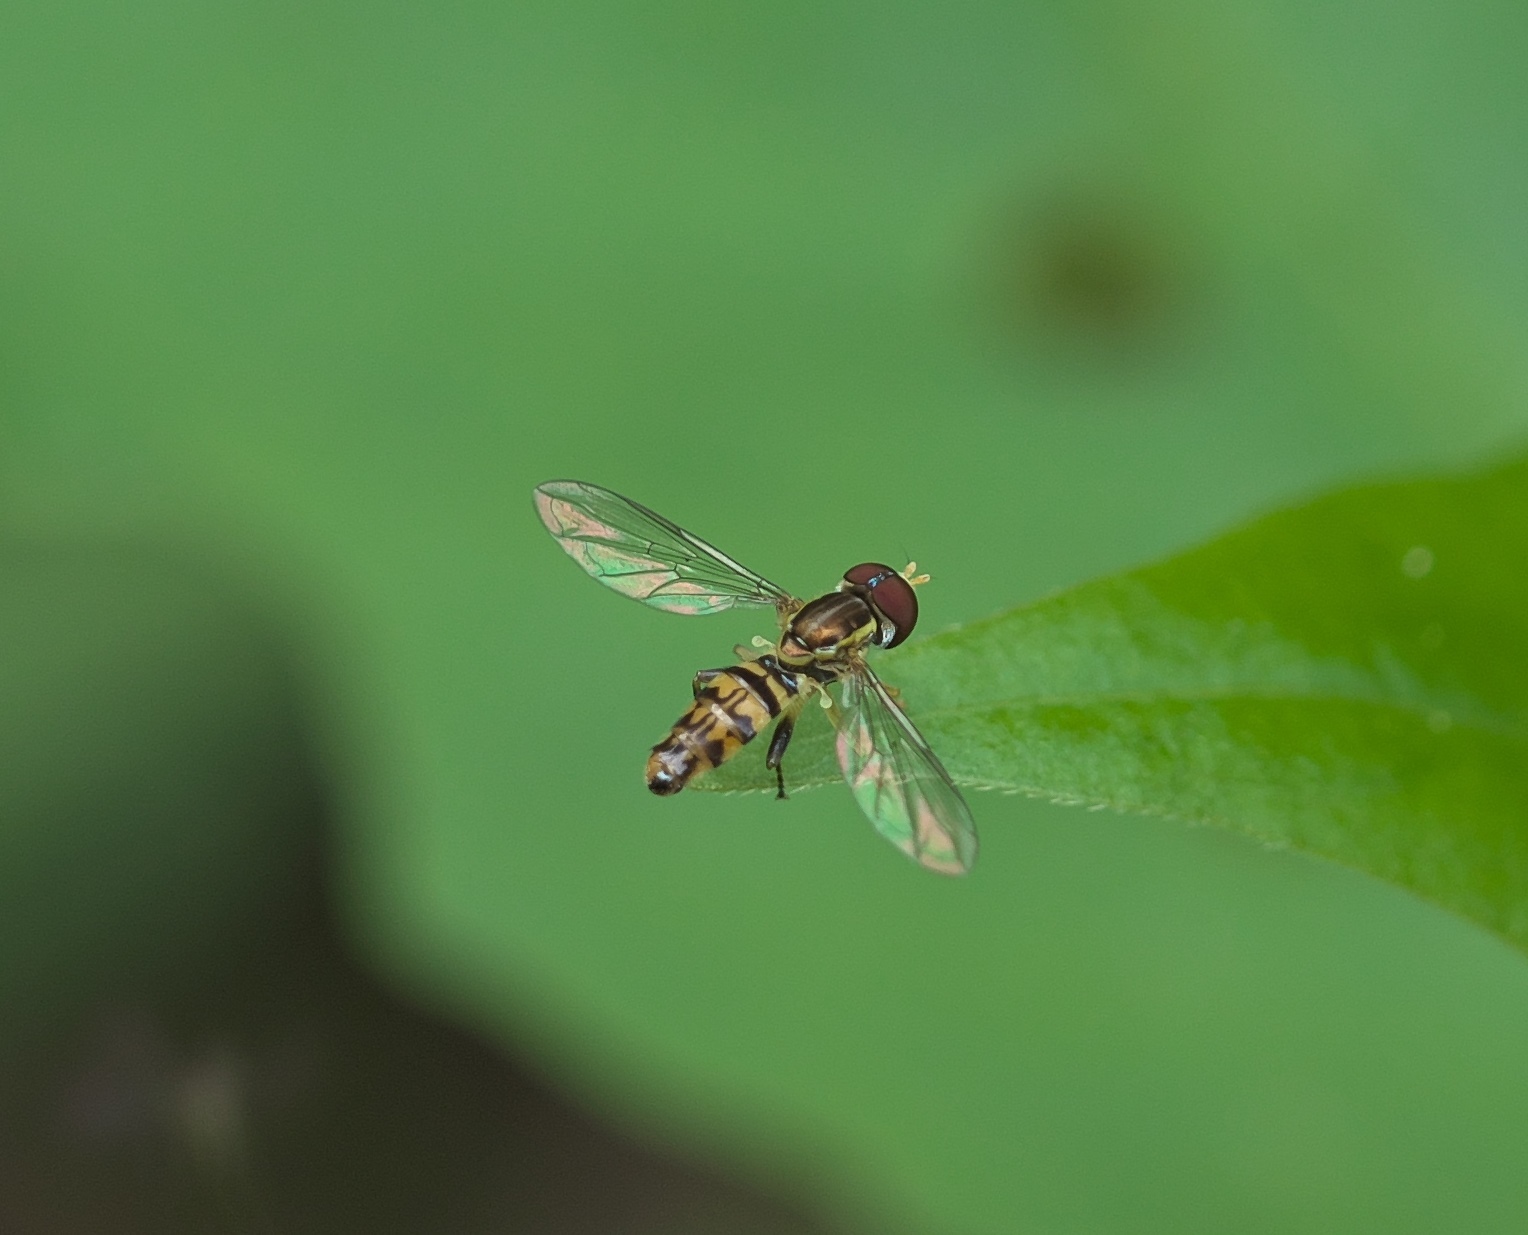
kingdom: Animalia
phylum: Arthropoda
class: Insecta
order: Diptera
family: Syrphidae
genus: Toxomerus
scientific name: Toxomerus geminatus
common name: Eastern calligrapher
